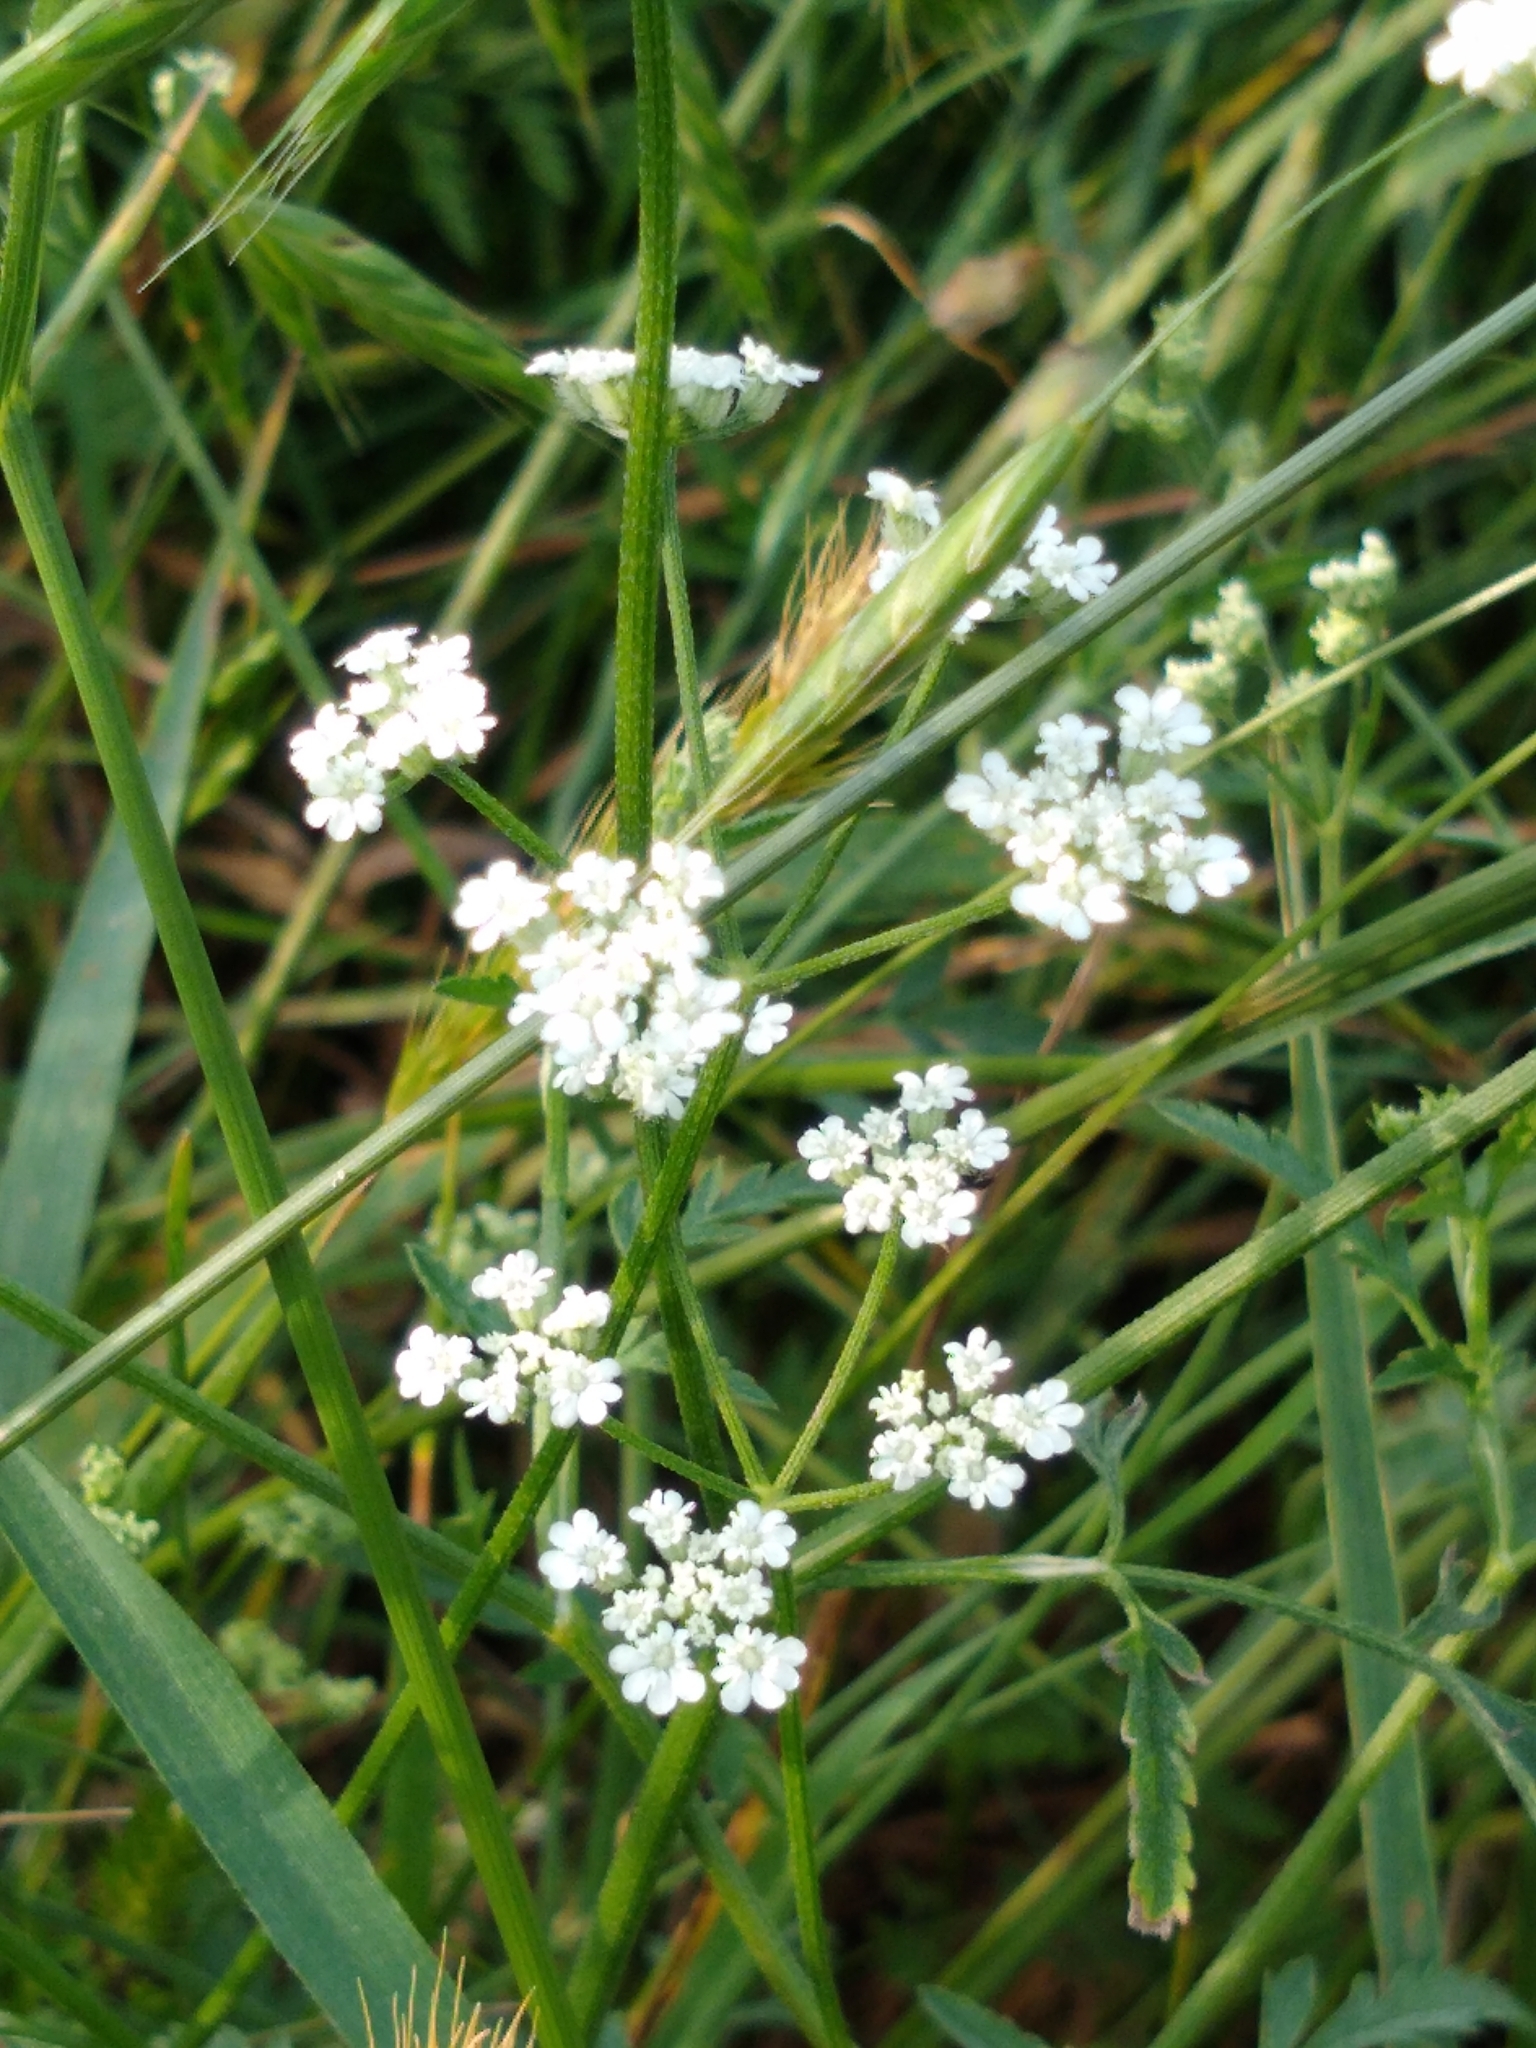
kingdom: Plantae
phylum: Tracheophyta
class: Magnoliopsida
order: Apiales
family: Apiaceae
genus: Torilis
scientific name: Torilis arvensis
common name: Spreading hedge-parsley
